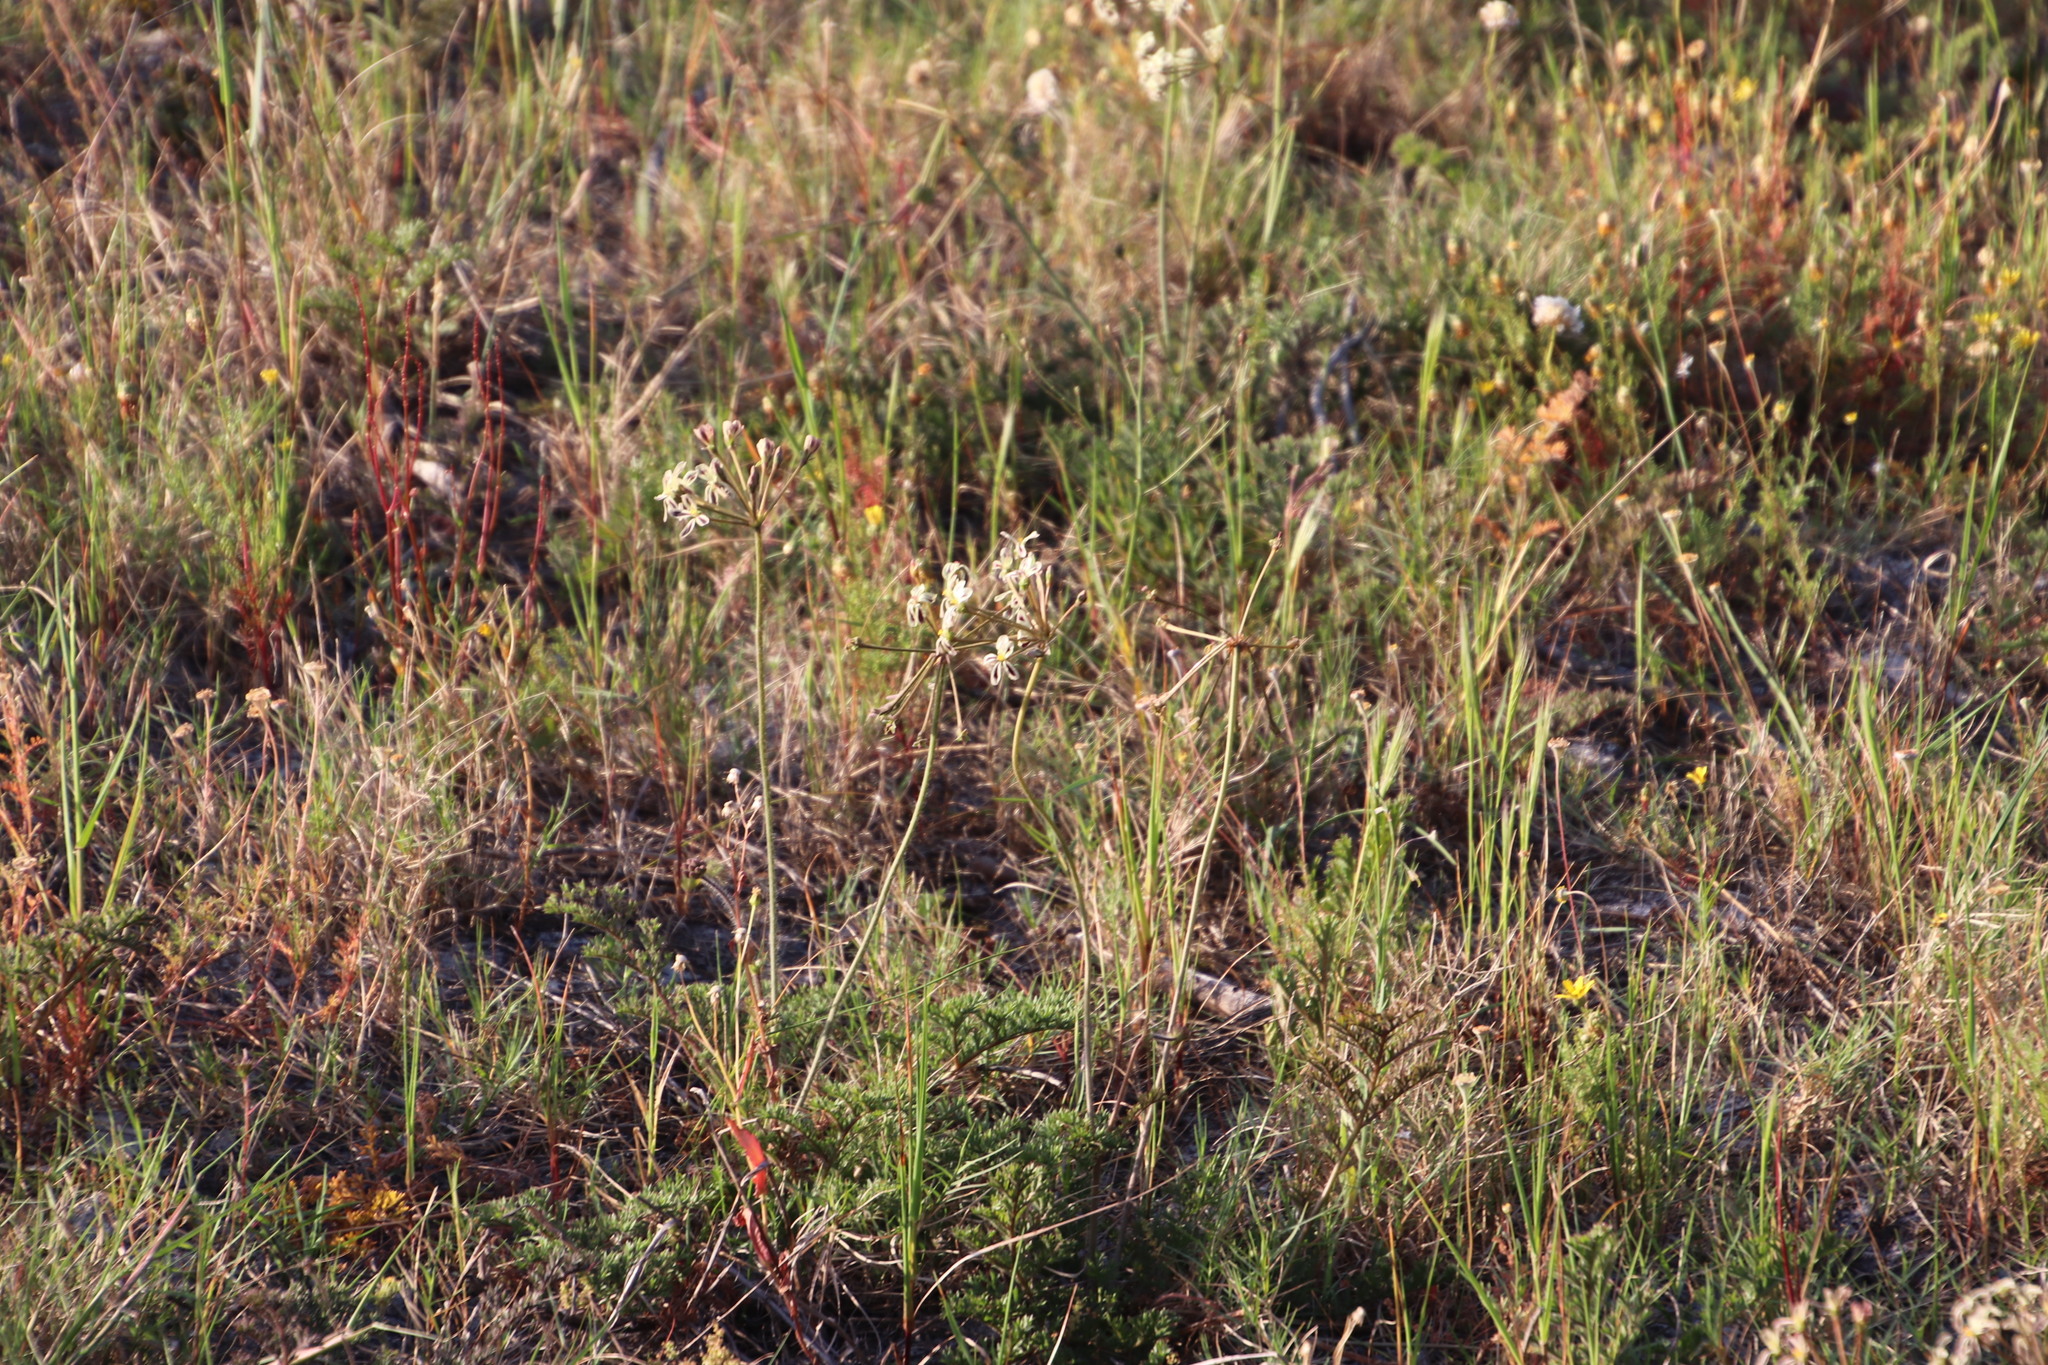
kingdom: Plantae
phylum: Tracheophyta
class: Magnoliopsida
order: Geraniales
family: Geraniaceae
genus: Pelargonium
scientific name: Pelargonium triste
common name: Night-scent pelargonium
